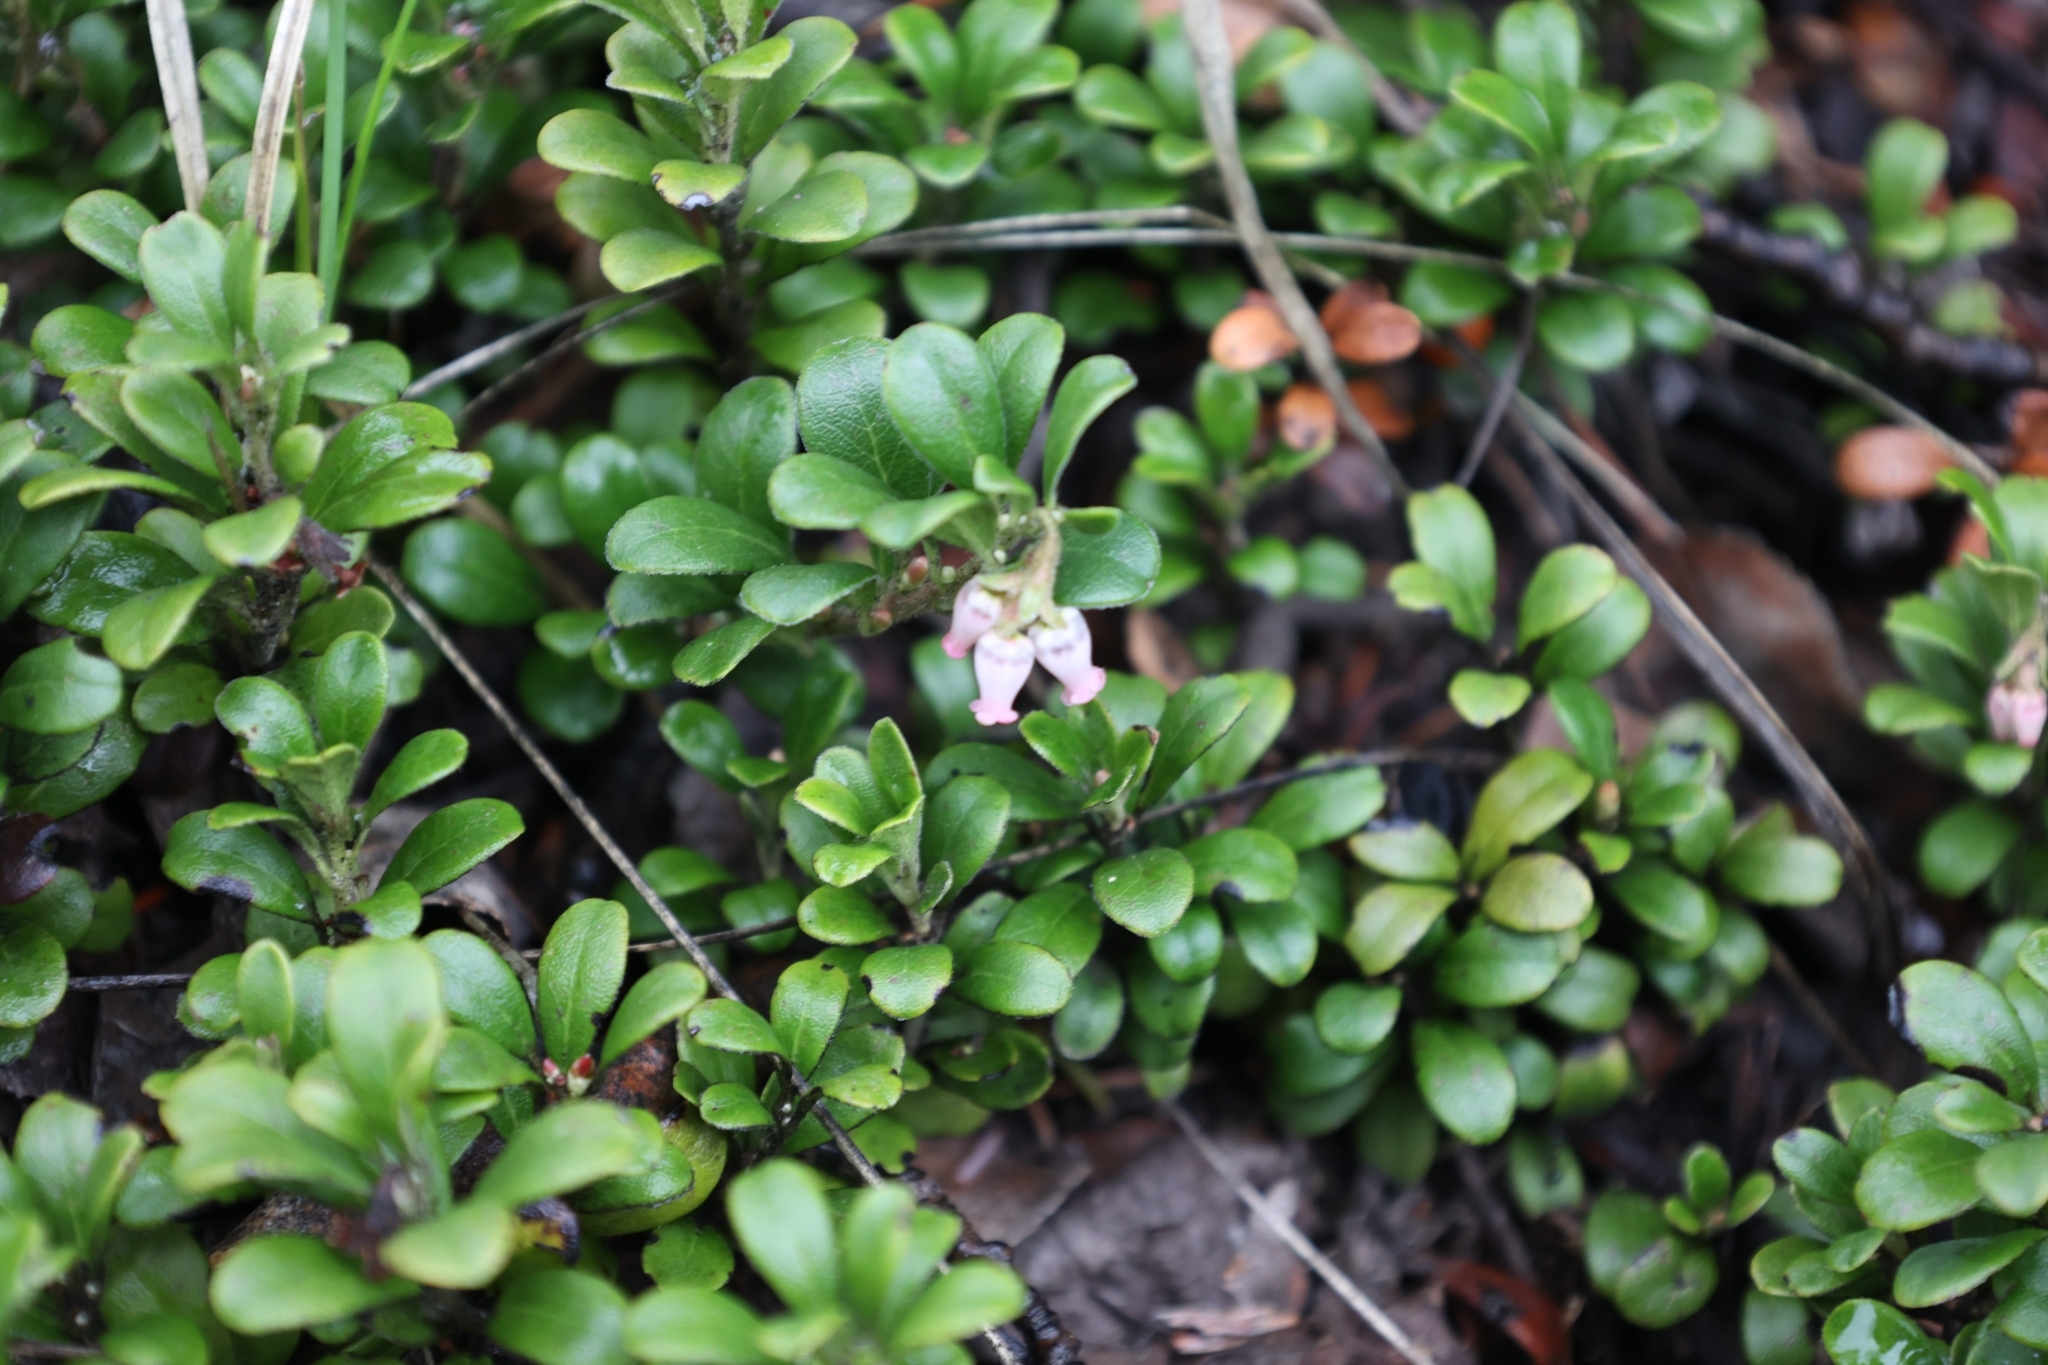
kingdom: Plantae
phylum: Tracheophyta
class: Magnoliopsida
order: Ericales
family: Ericaceae
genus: Arctostaphylos
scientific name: Arctostaphylos uva-ursi
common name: Bearberry
